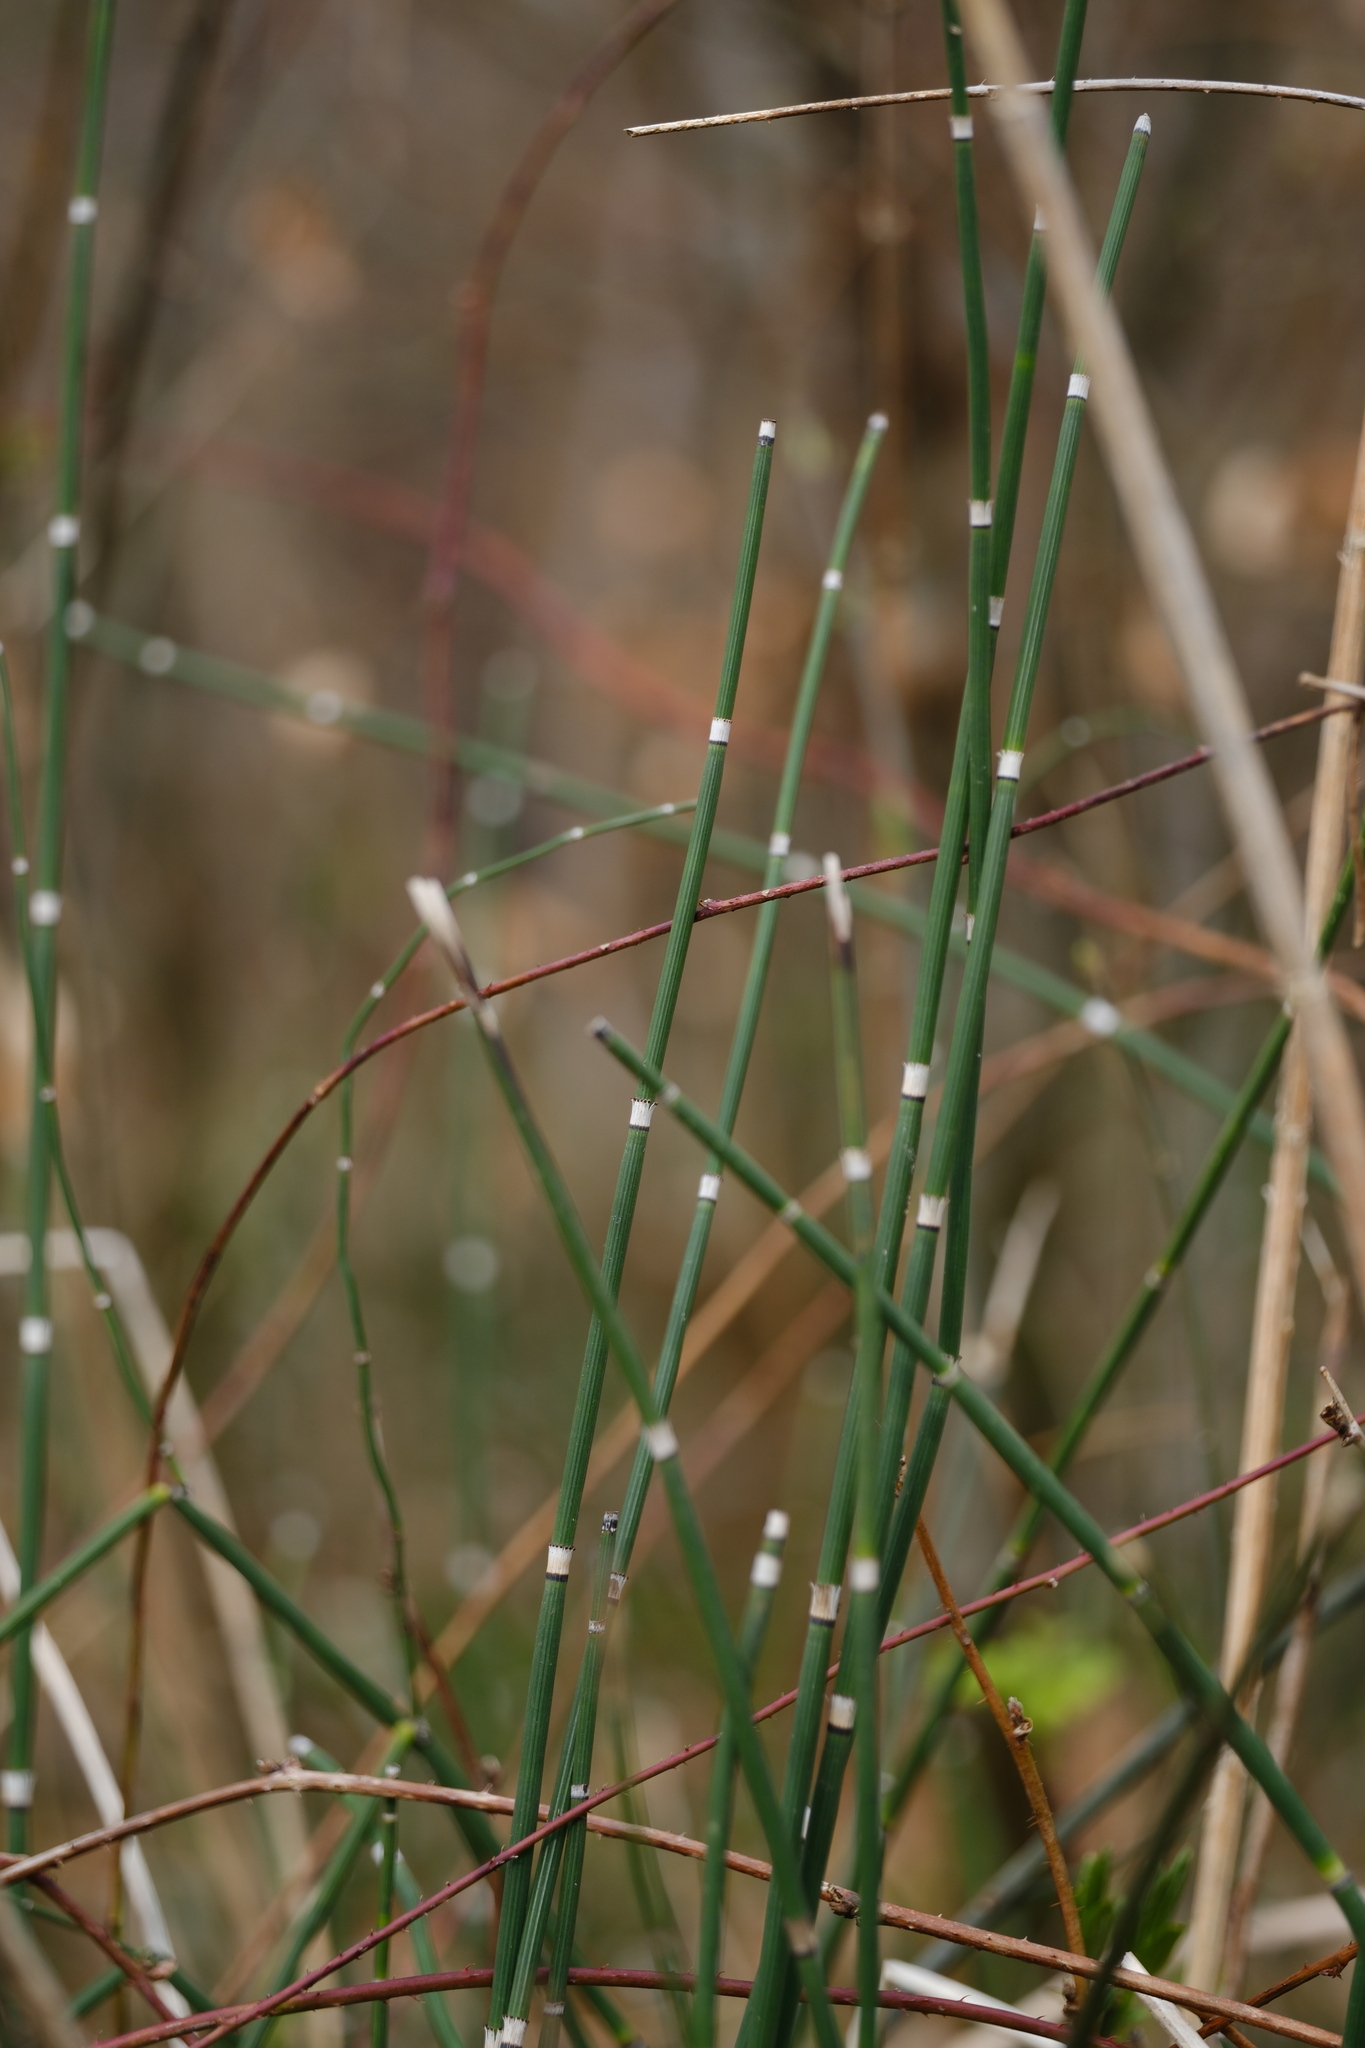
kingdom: Plantae
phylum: Tracheophyta
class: Polypodiopsida
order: Equisetales
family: Equisetaceae
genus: Equisetum
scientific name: Equisetum hyemale
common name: Rough horsetail
